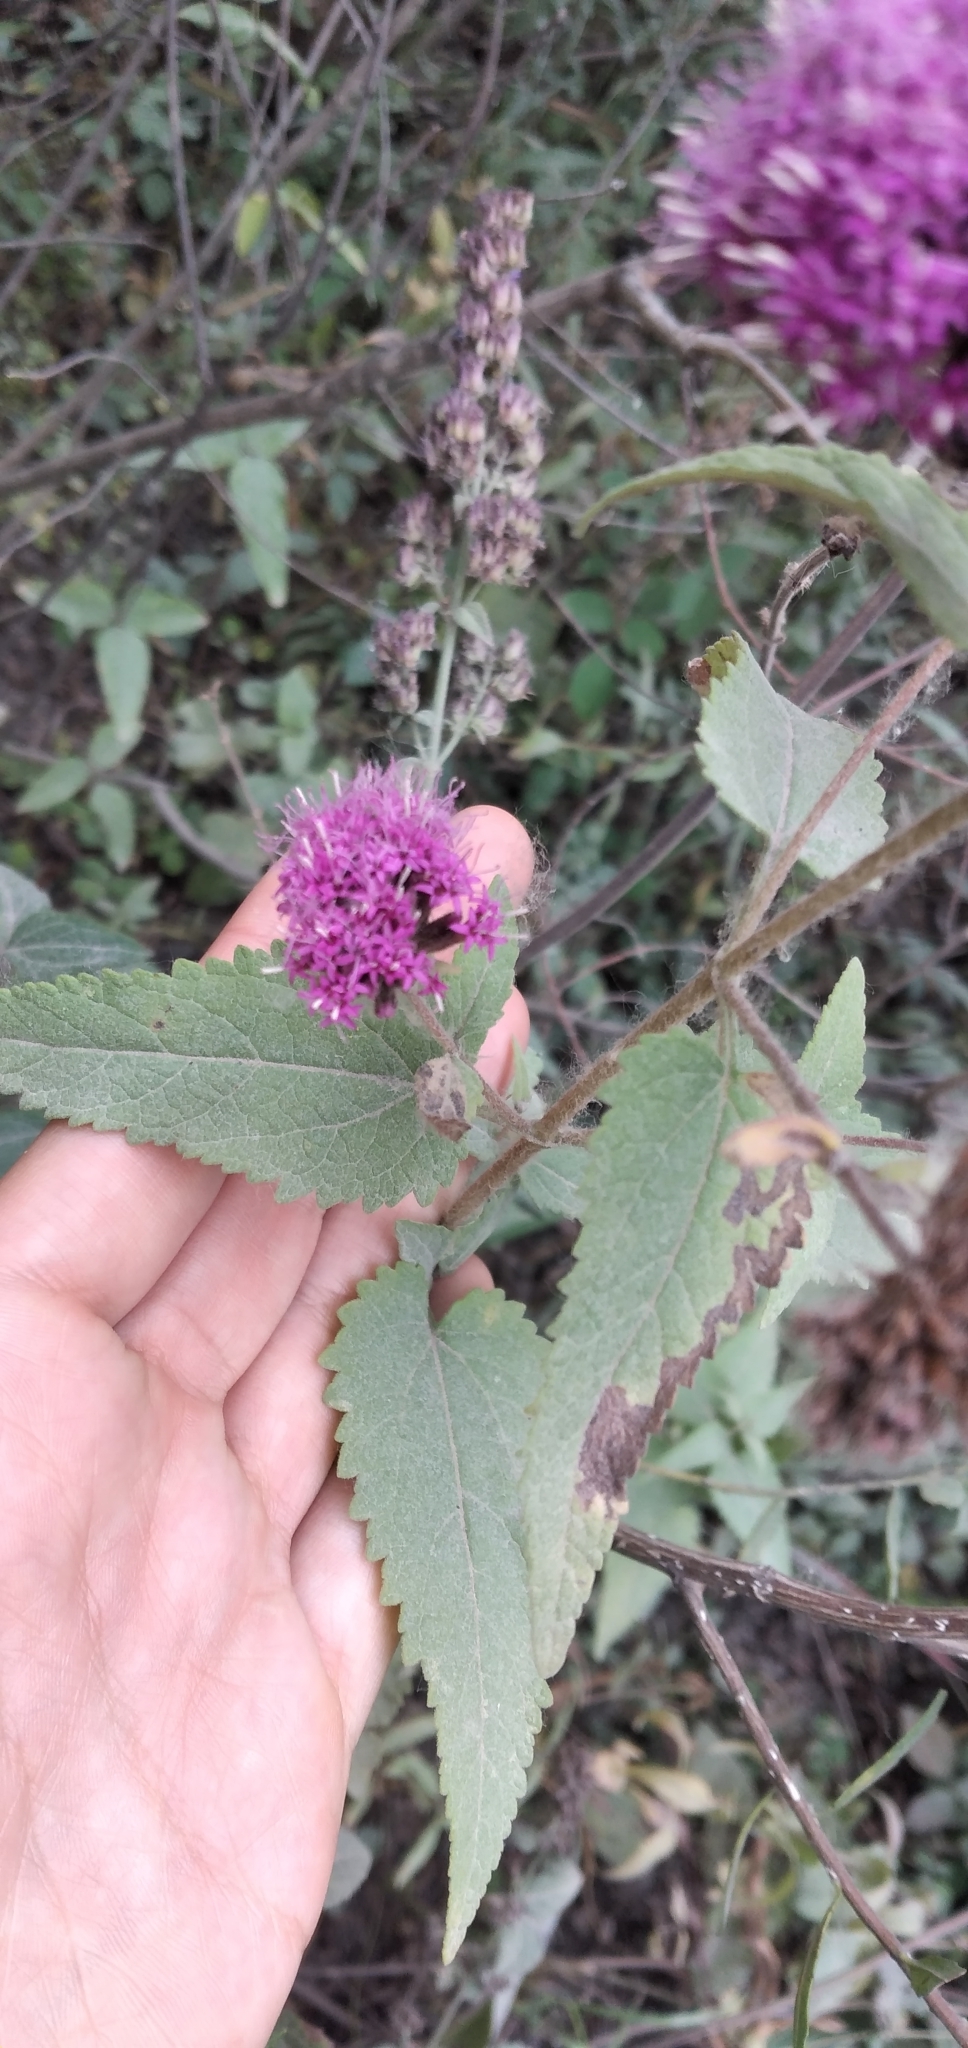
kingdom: Plantae
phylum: Tracheophyta
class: Magnoliopsida
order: Asterales
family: Asteraceae
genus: Stevia
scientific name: Stevia sanguinea
